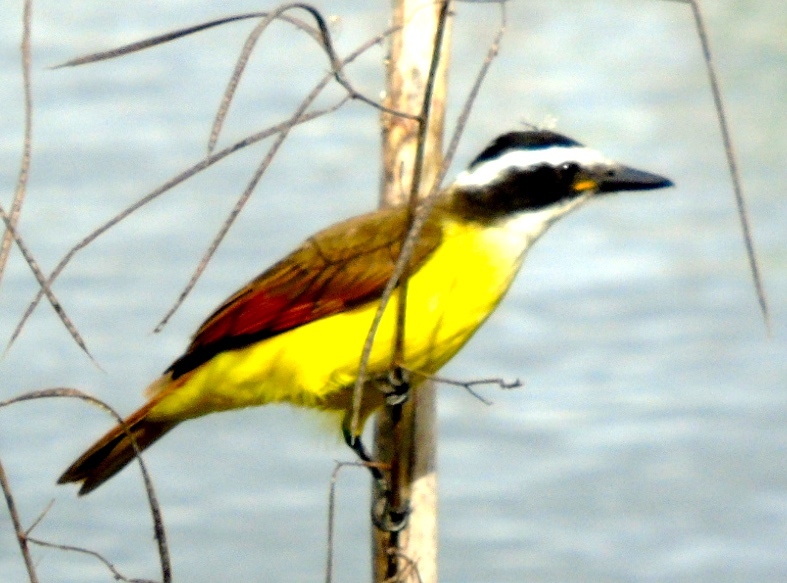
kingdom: Animalia
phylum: Chordata
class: Aves
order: Passeriformes
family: Tyrannidae
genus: Pitangus
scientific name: Pitangus sulphuratus
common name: Great kiskadee
